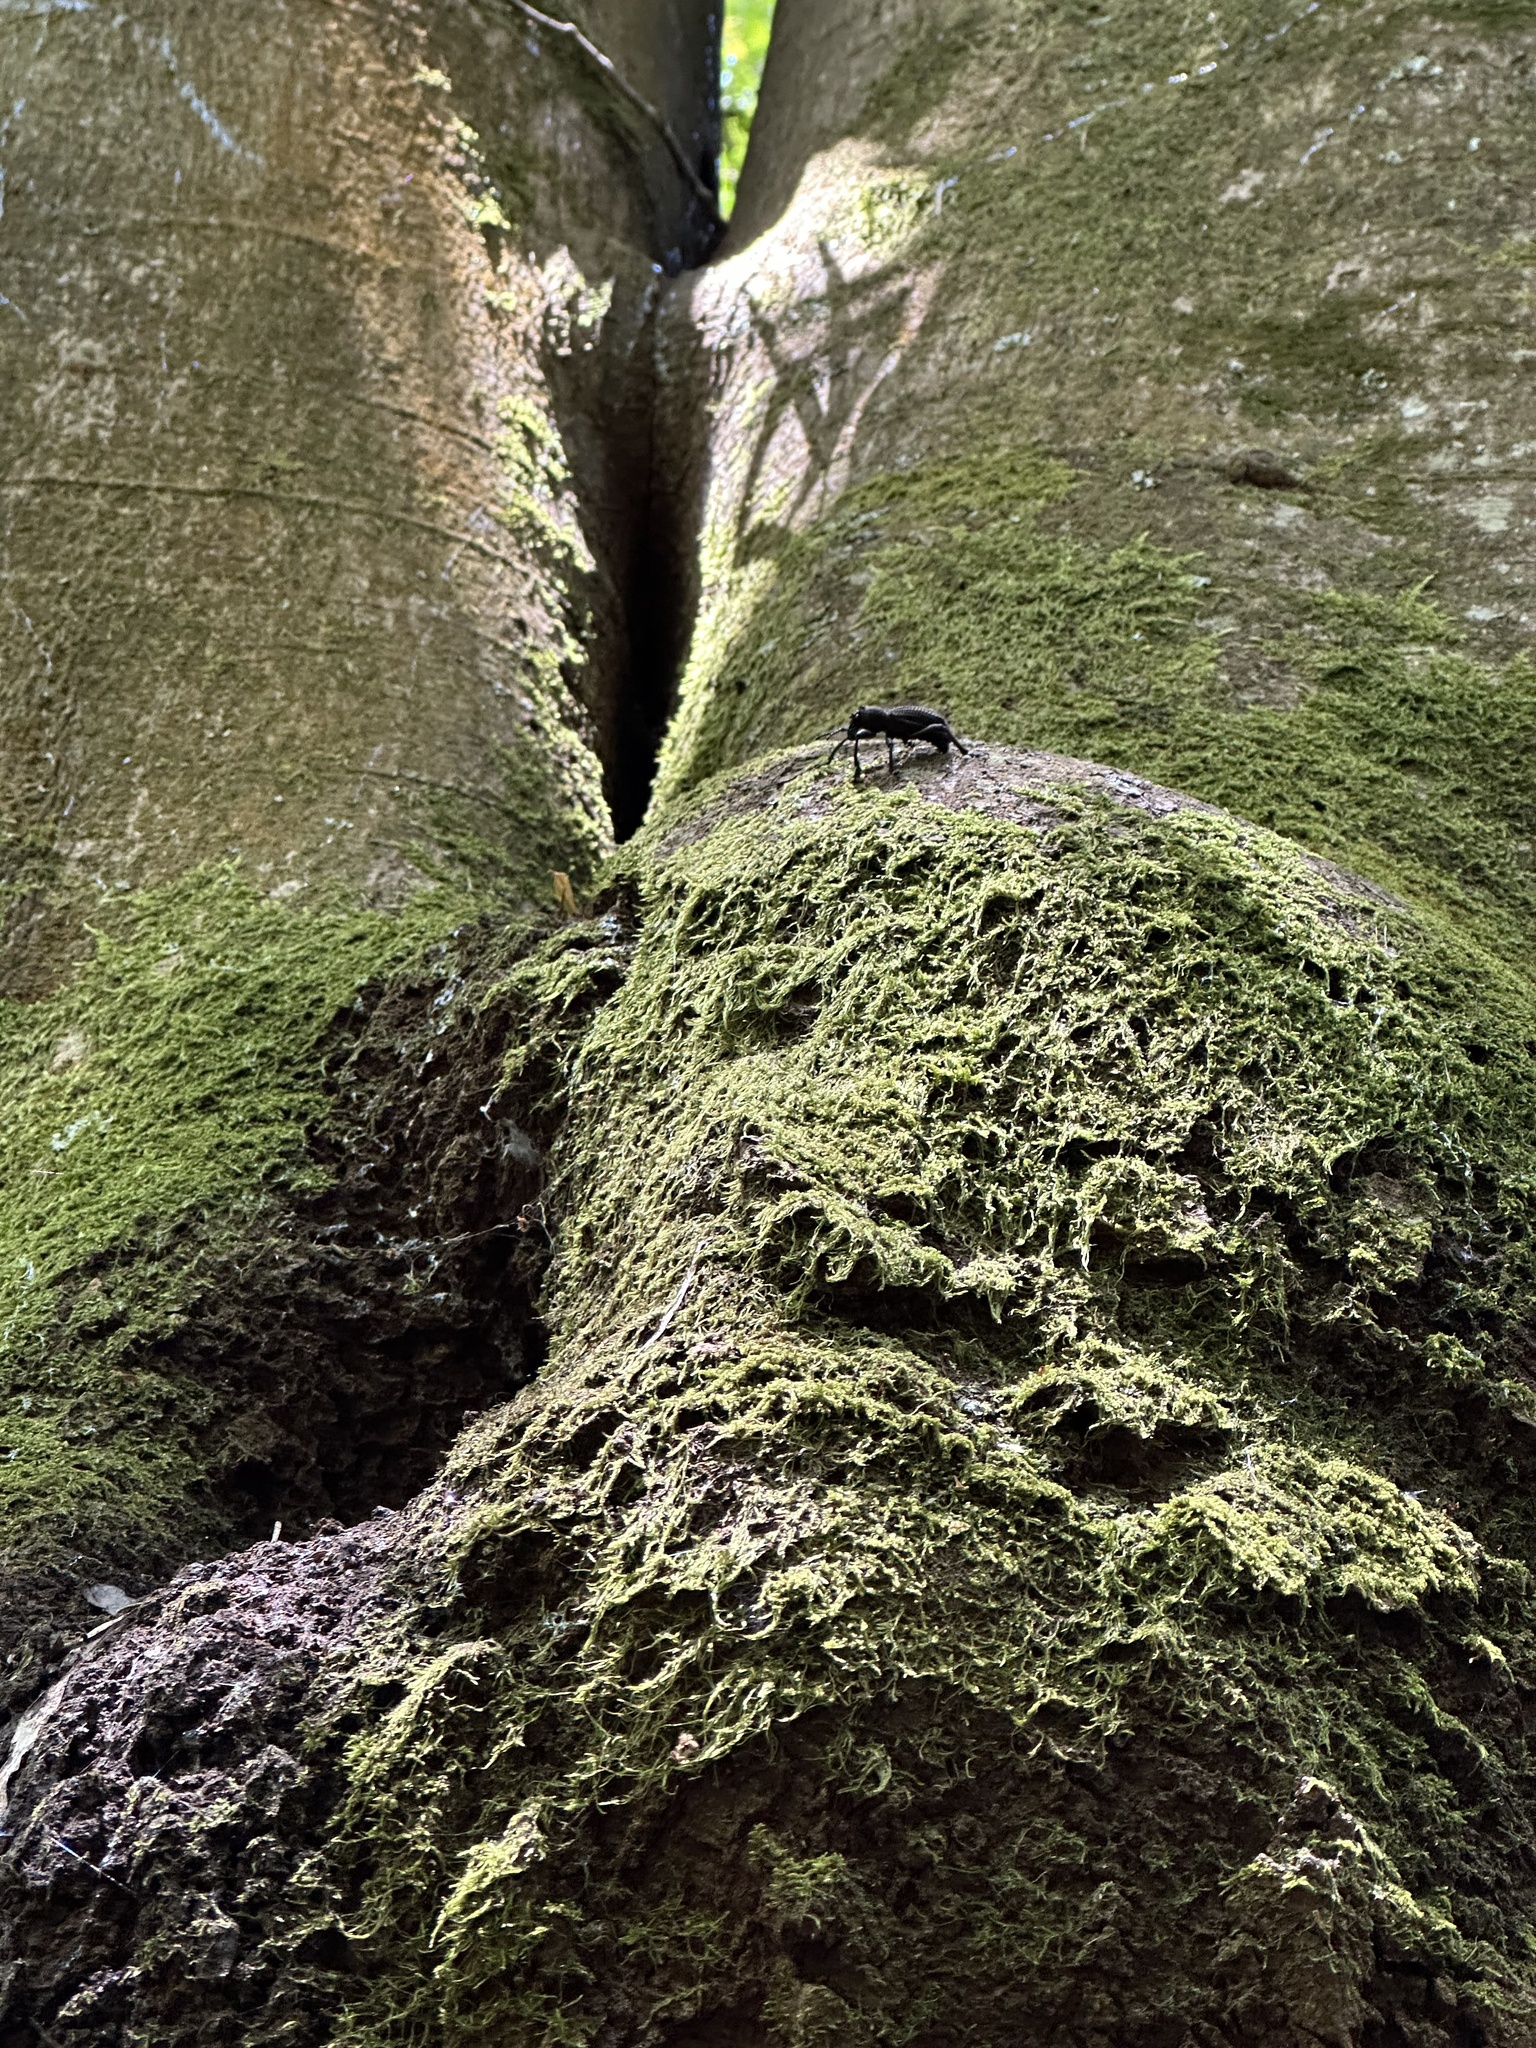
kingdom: Animalia
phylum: Arthropoda
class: Insecta
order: Coleoptera
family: Curculionidae
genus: Aegorhinus
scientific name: Aegorhinus
